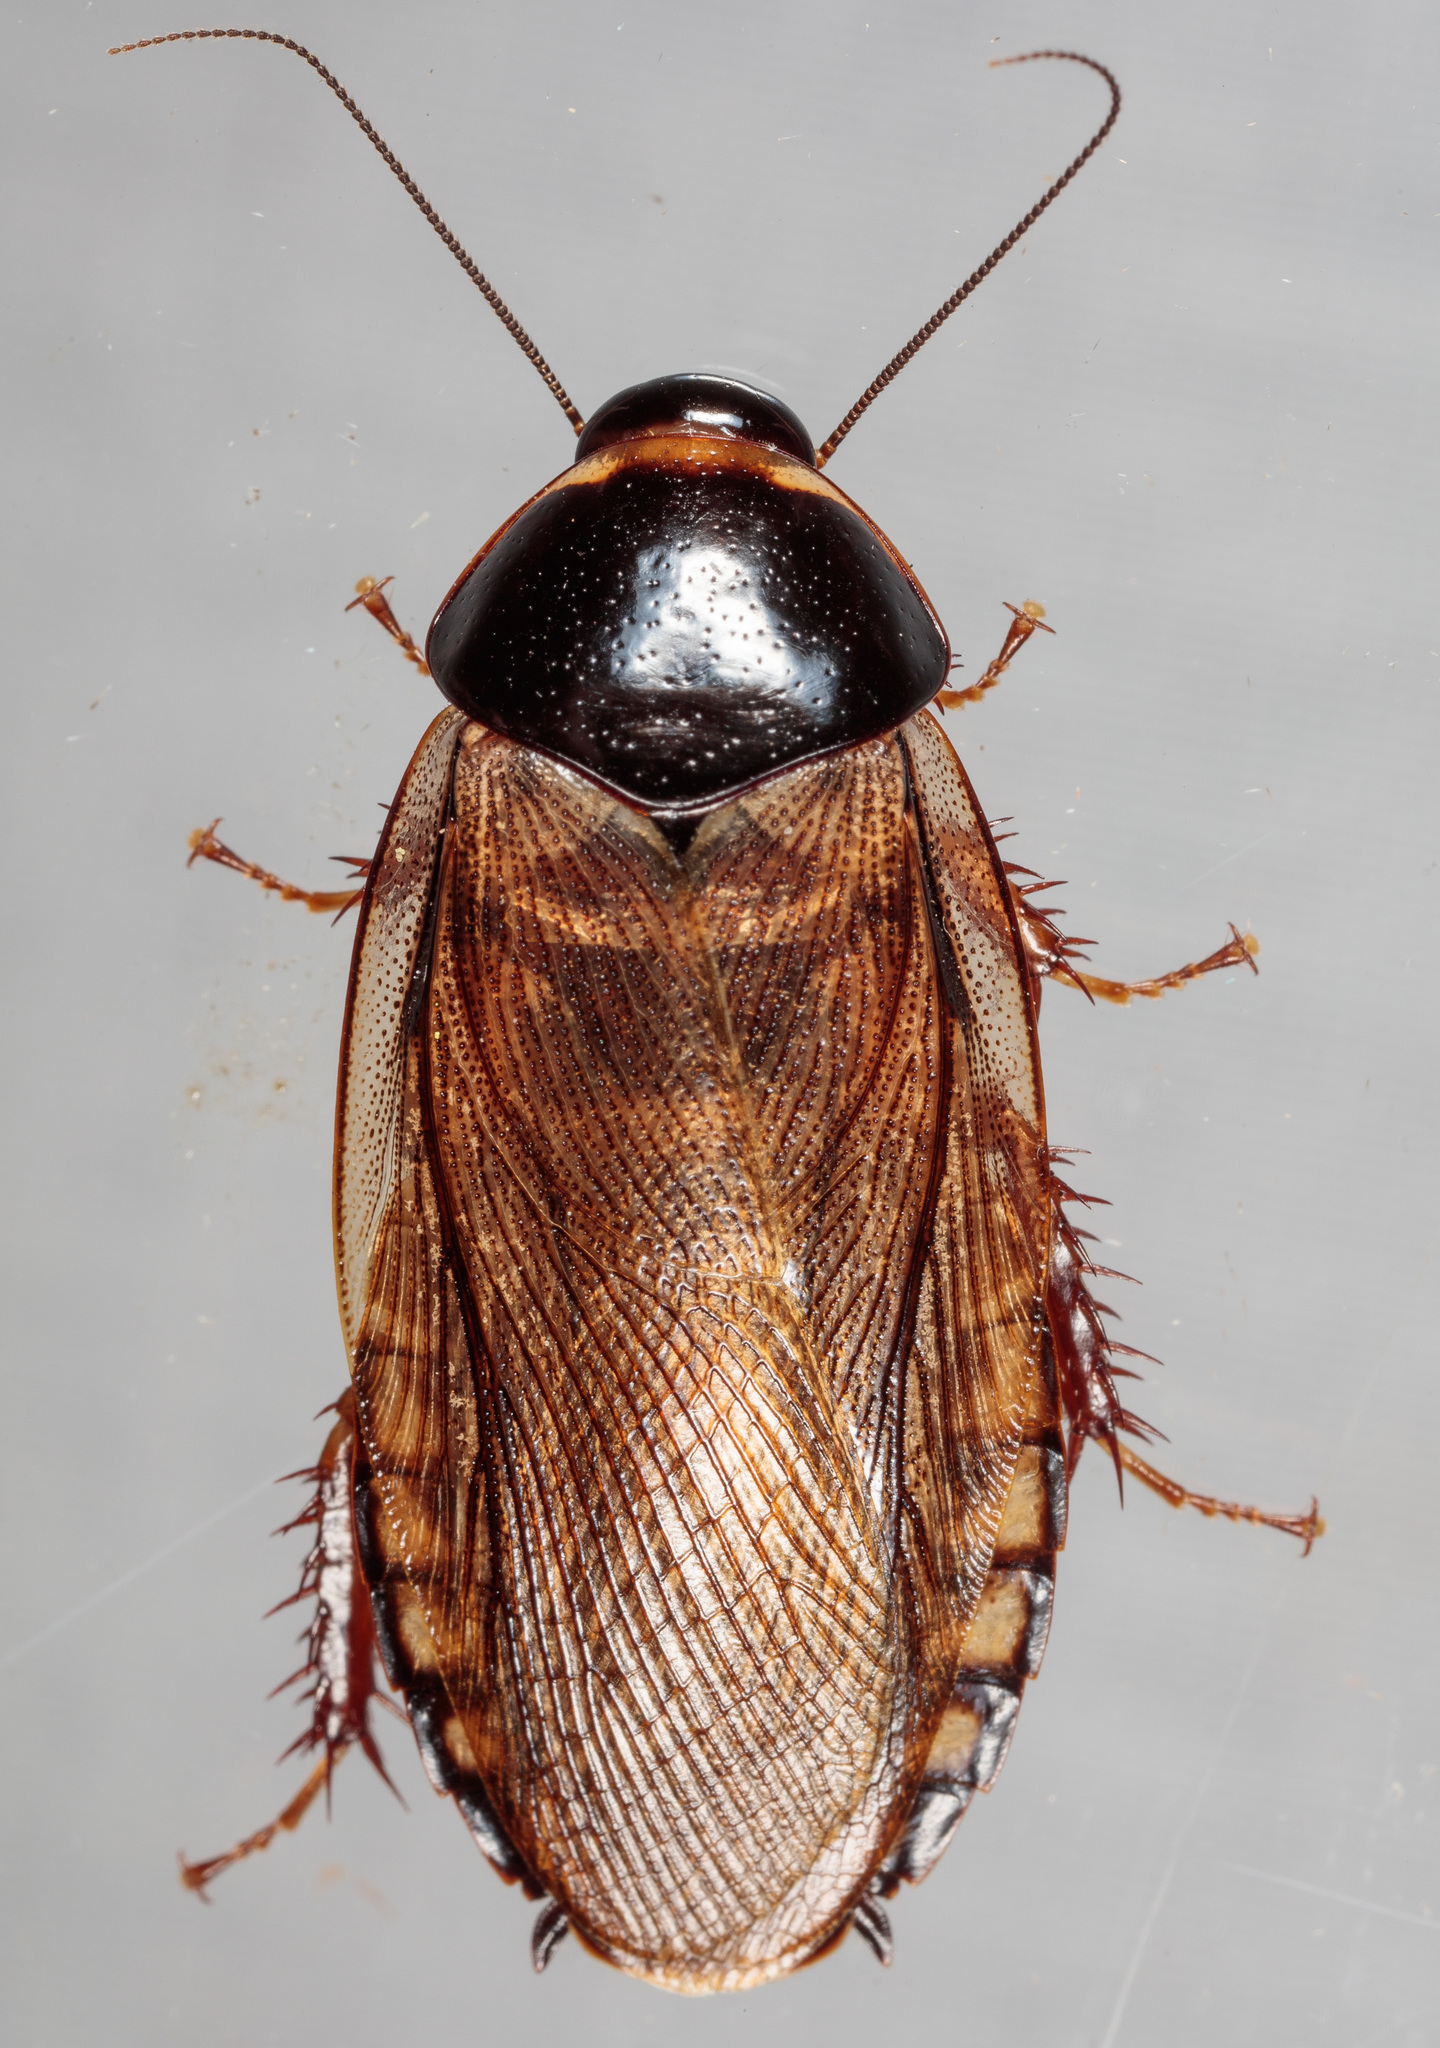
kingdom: Animalia
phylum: Arthropoda
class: Insecta
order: Blattodea
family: Blaberidae
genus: Pycnoscelus
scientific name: Pycnoscelus surinamensis
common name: Surinam cockroach
